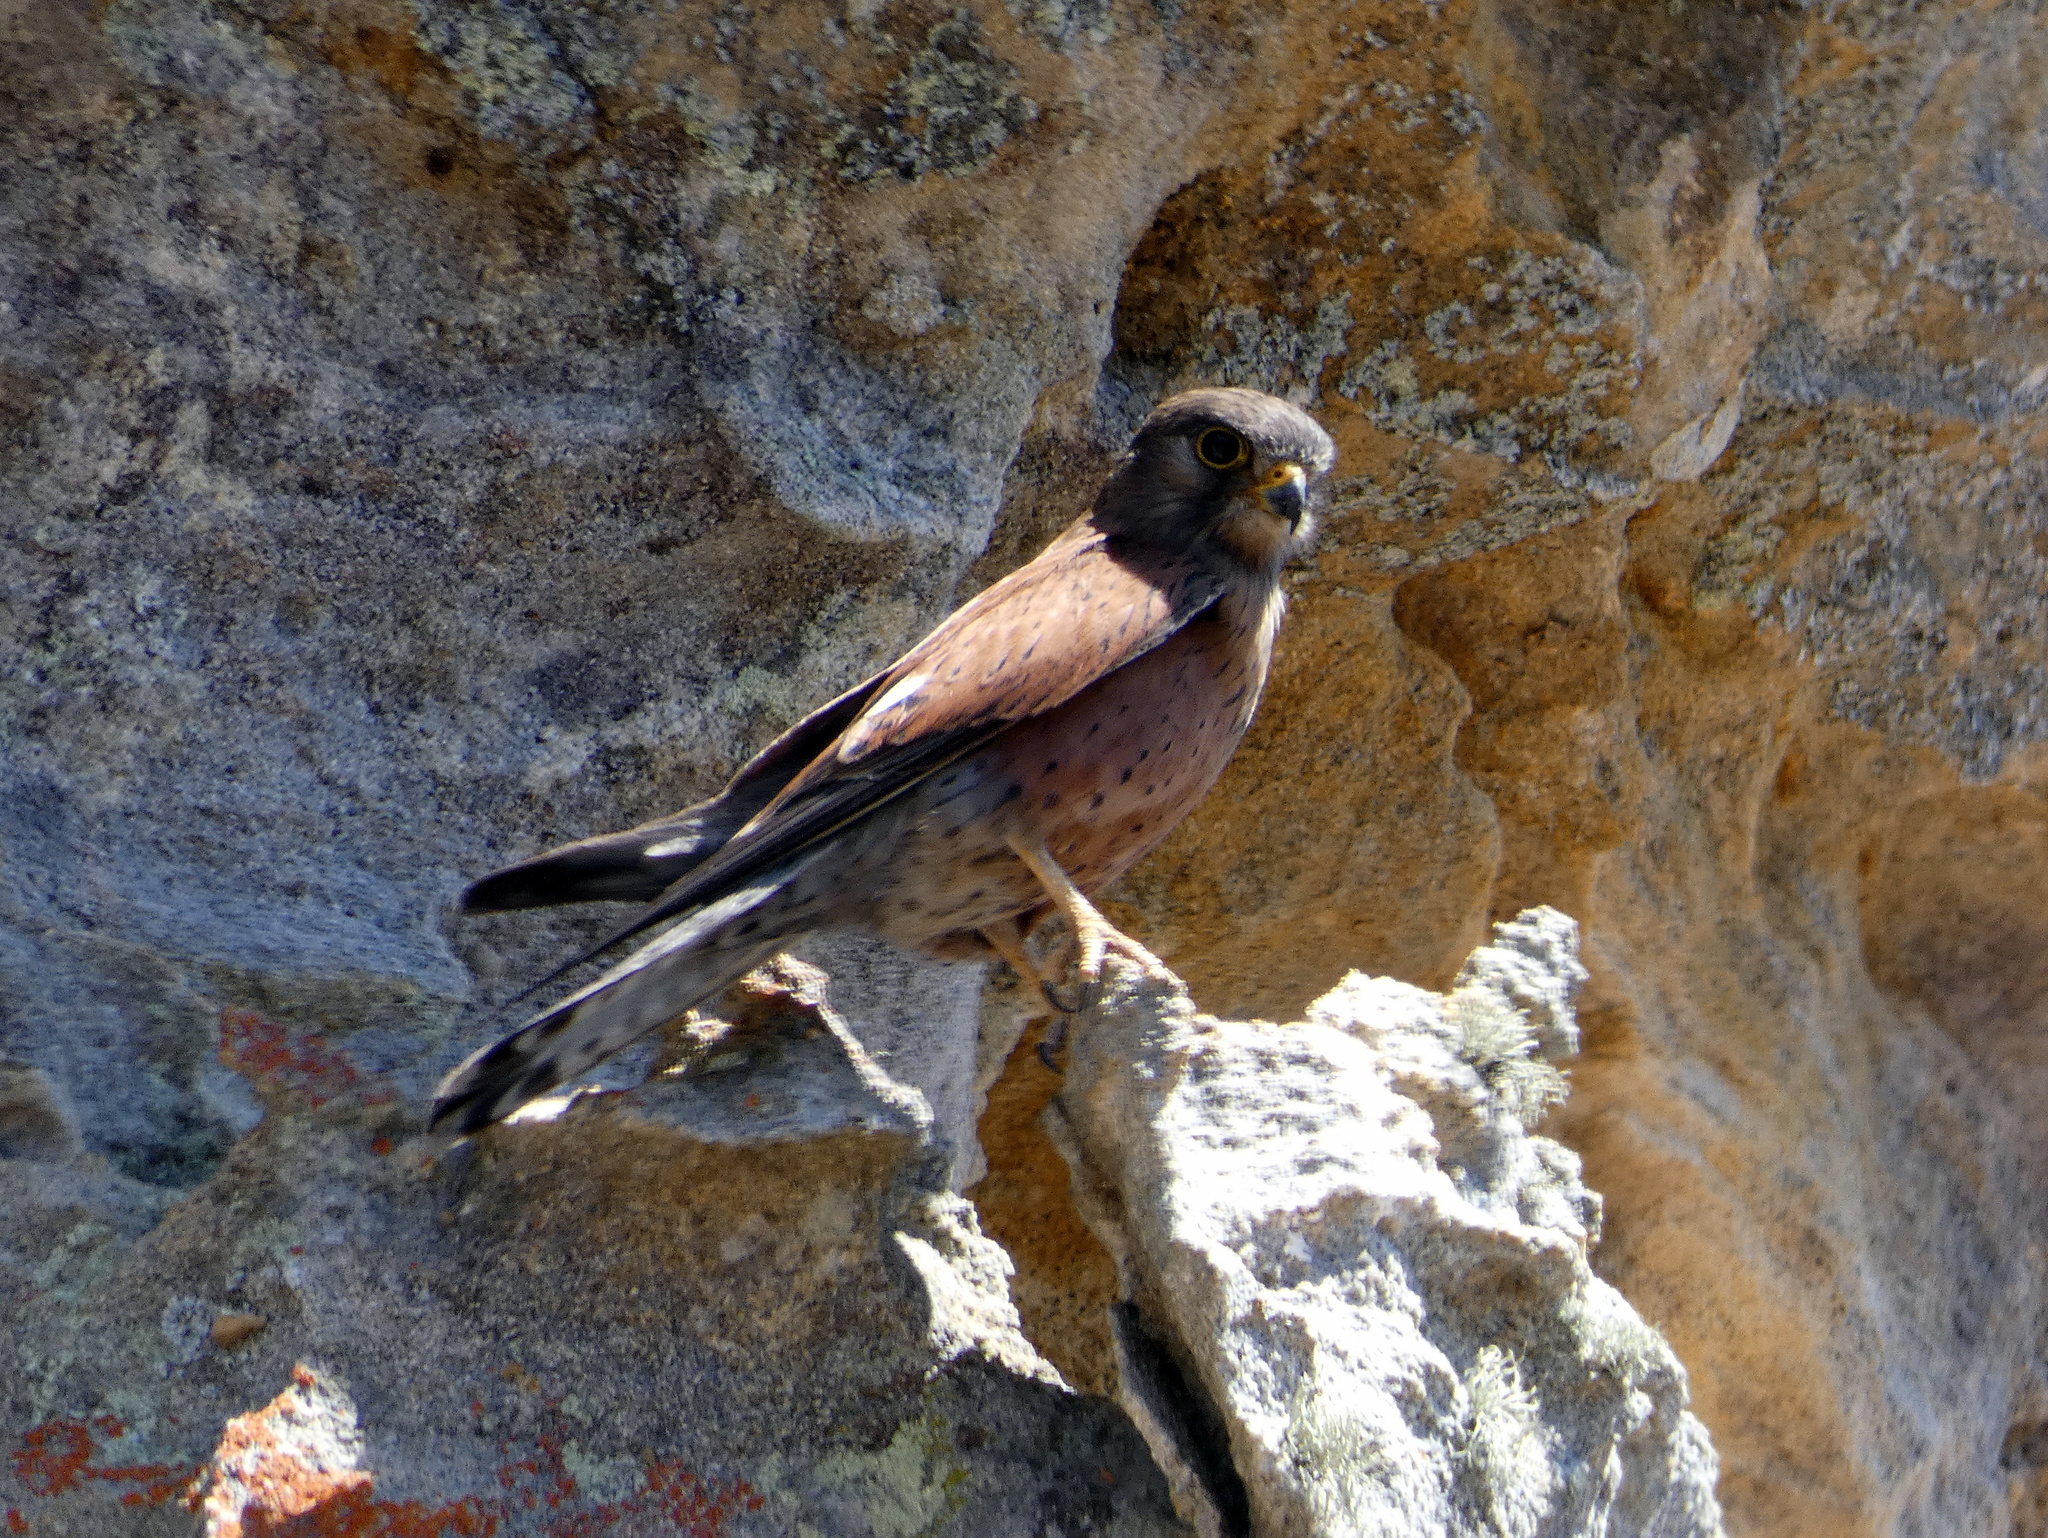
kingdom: Animalia
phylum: Chordata
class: Aves
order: Falconiformes
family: Falconidae
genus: Falco
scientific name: Falco newtoni
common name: Malagasy kestrel
